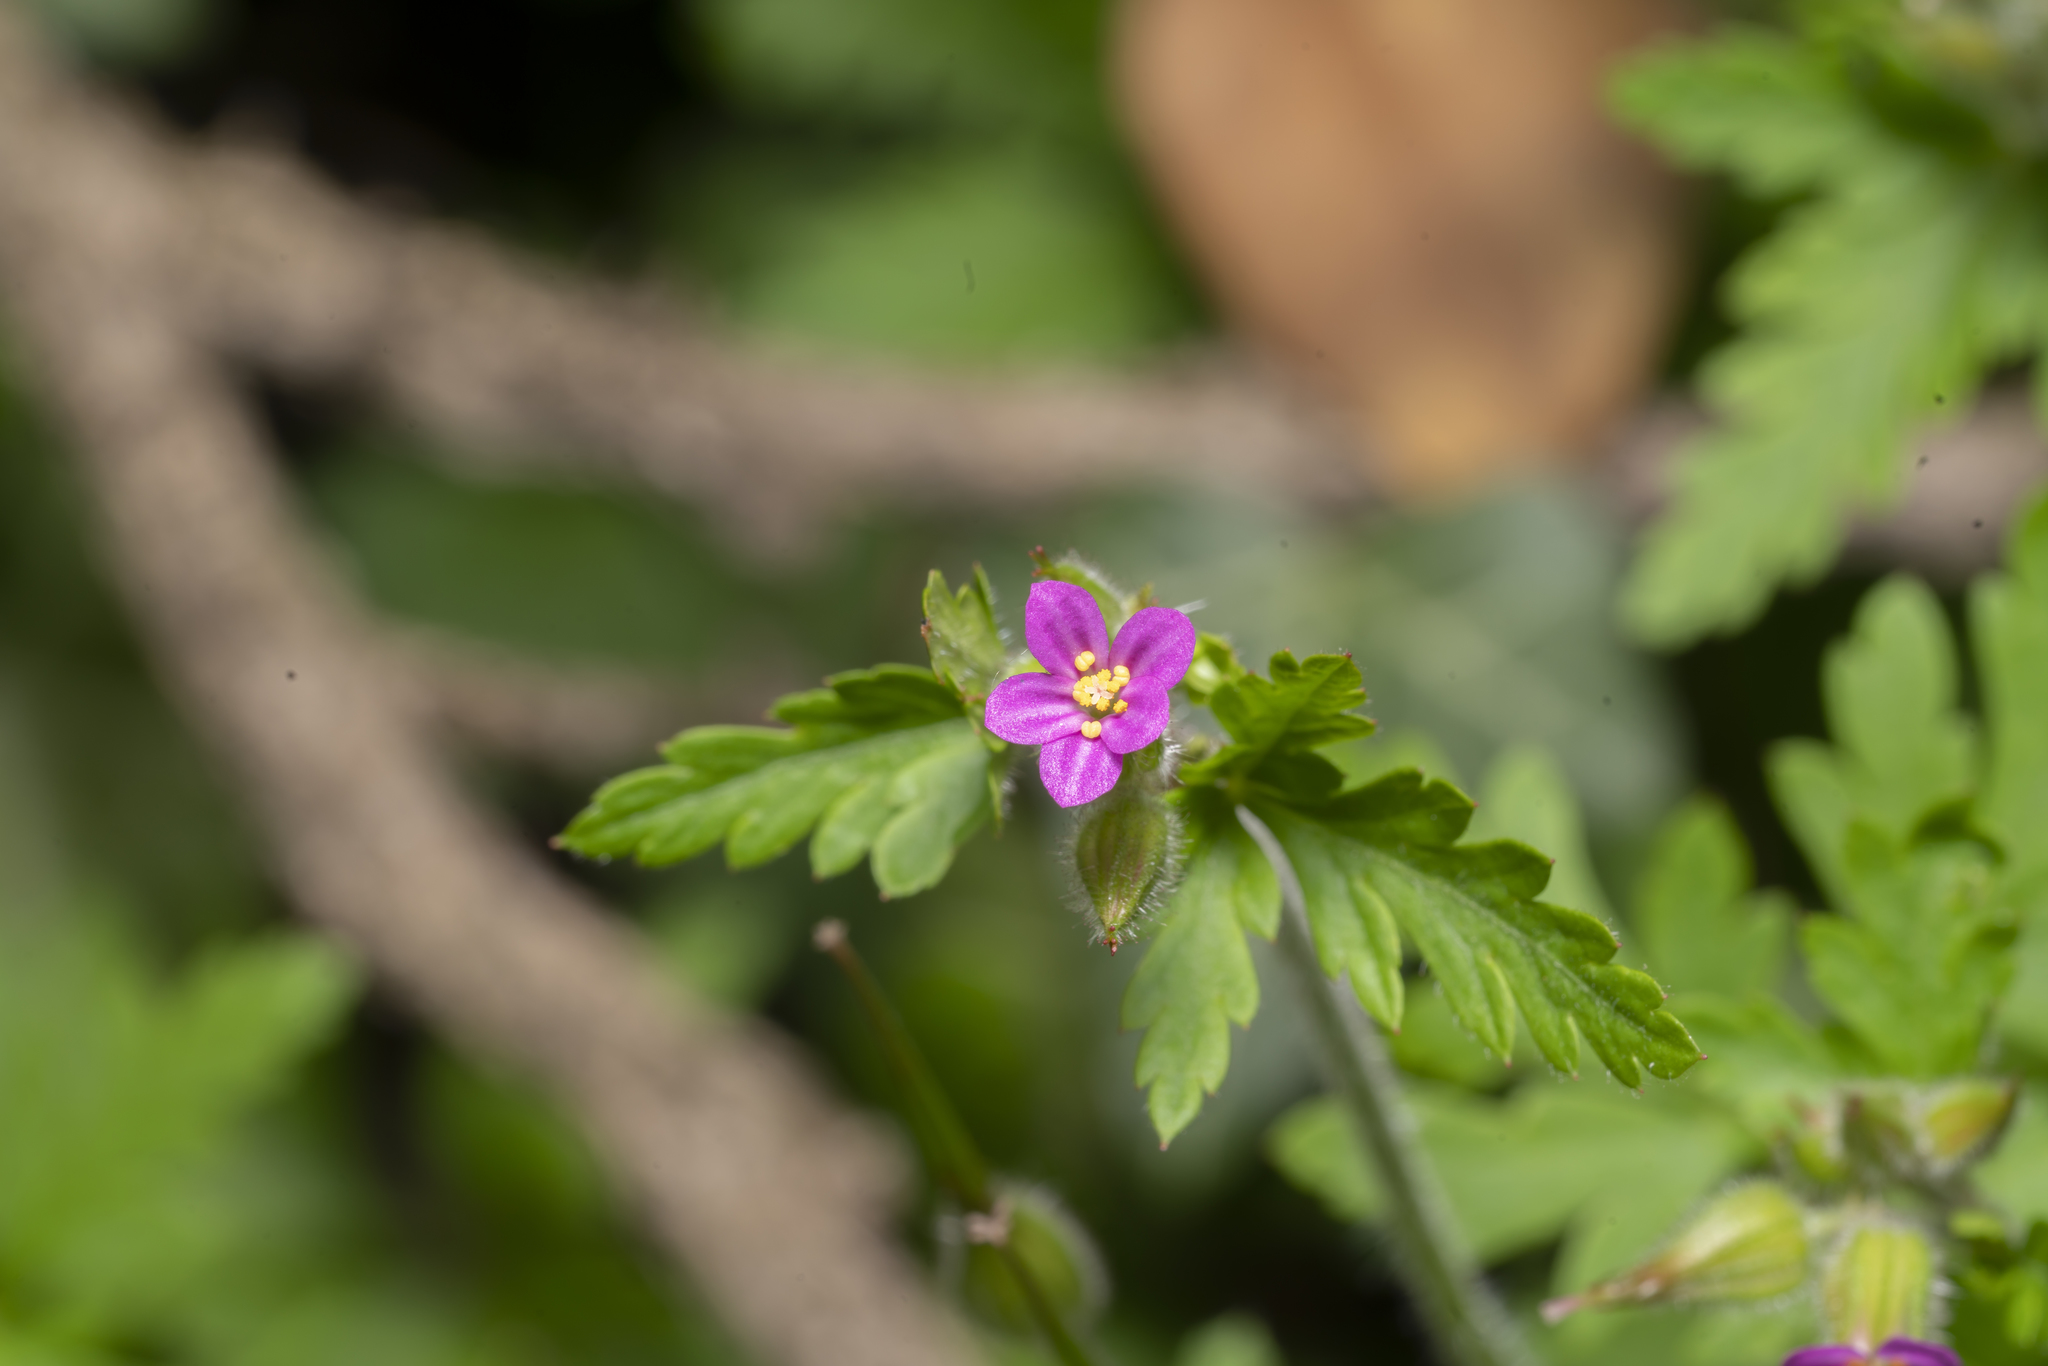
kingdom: Plantae
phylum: Tracheophyta
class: Magnoliopsida
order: Geraniales
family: Geraniaceae
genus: Geranium
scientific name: Geranium purpureum
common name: Little-robin
